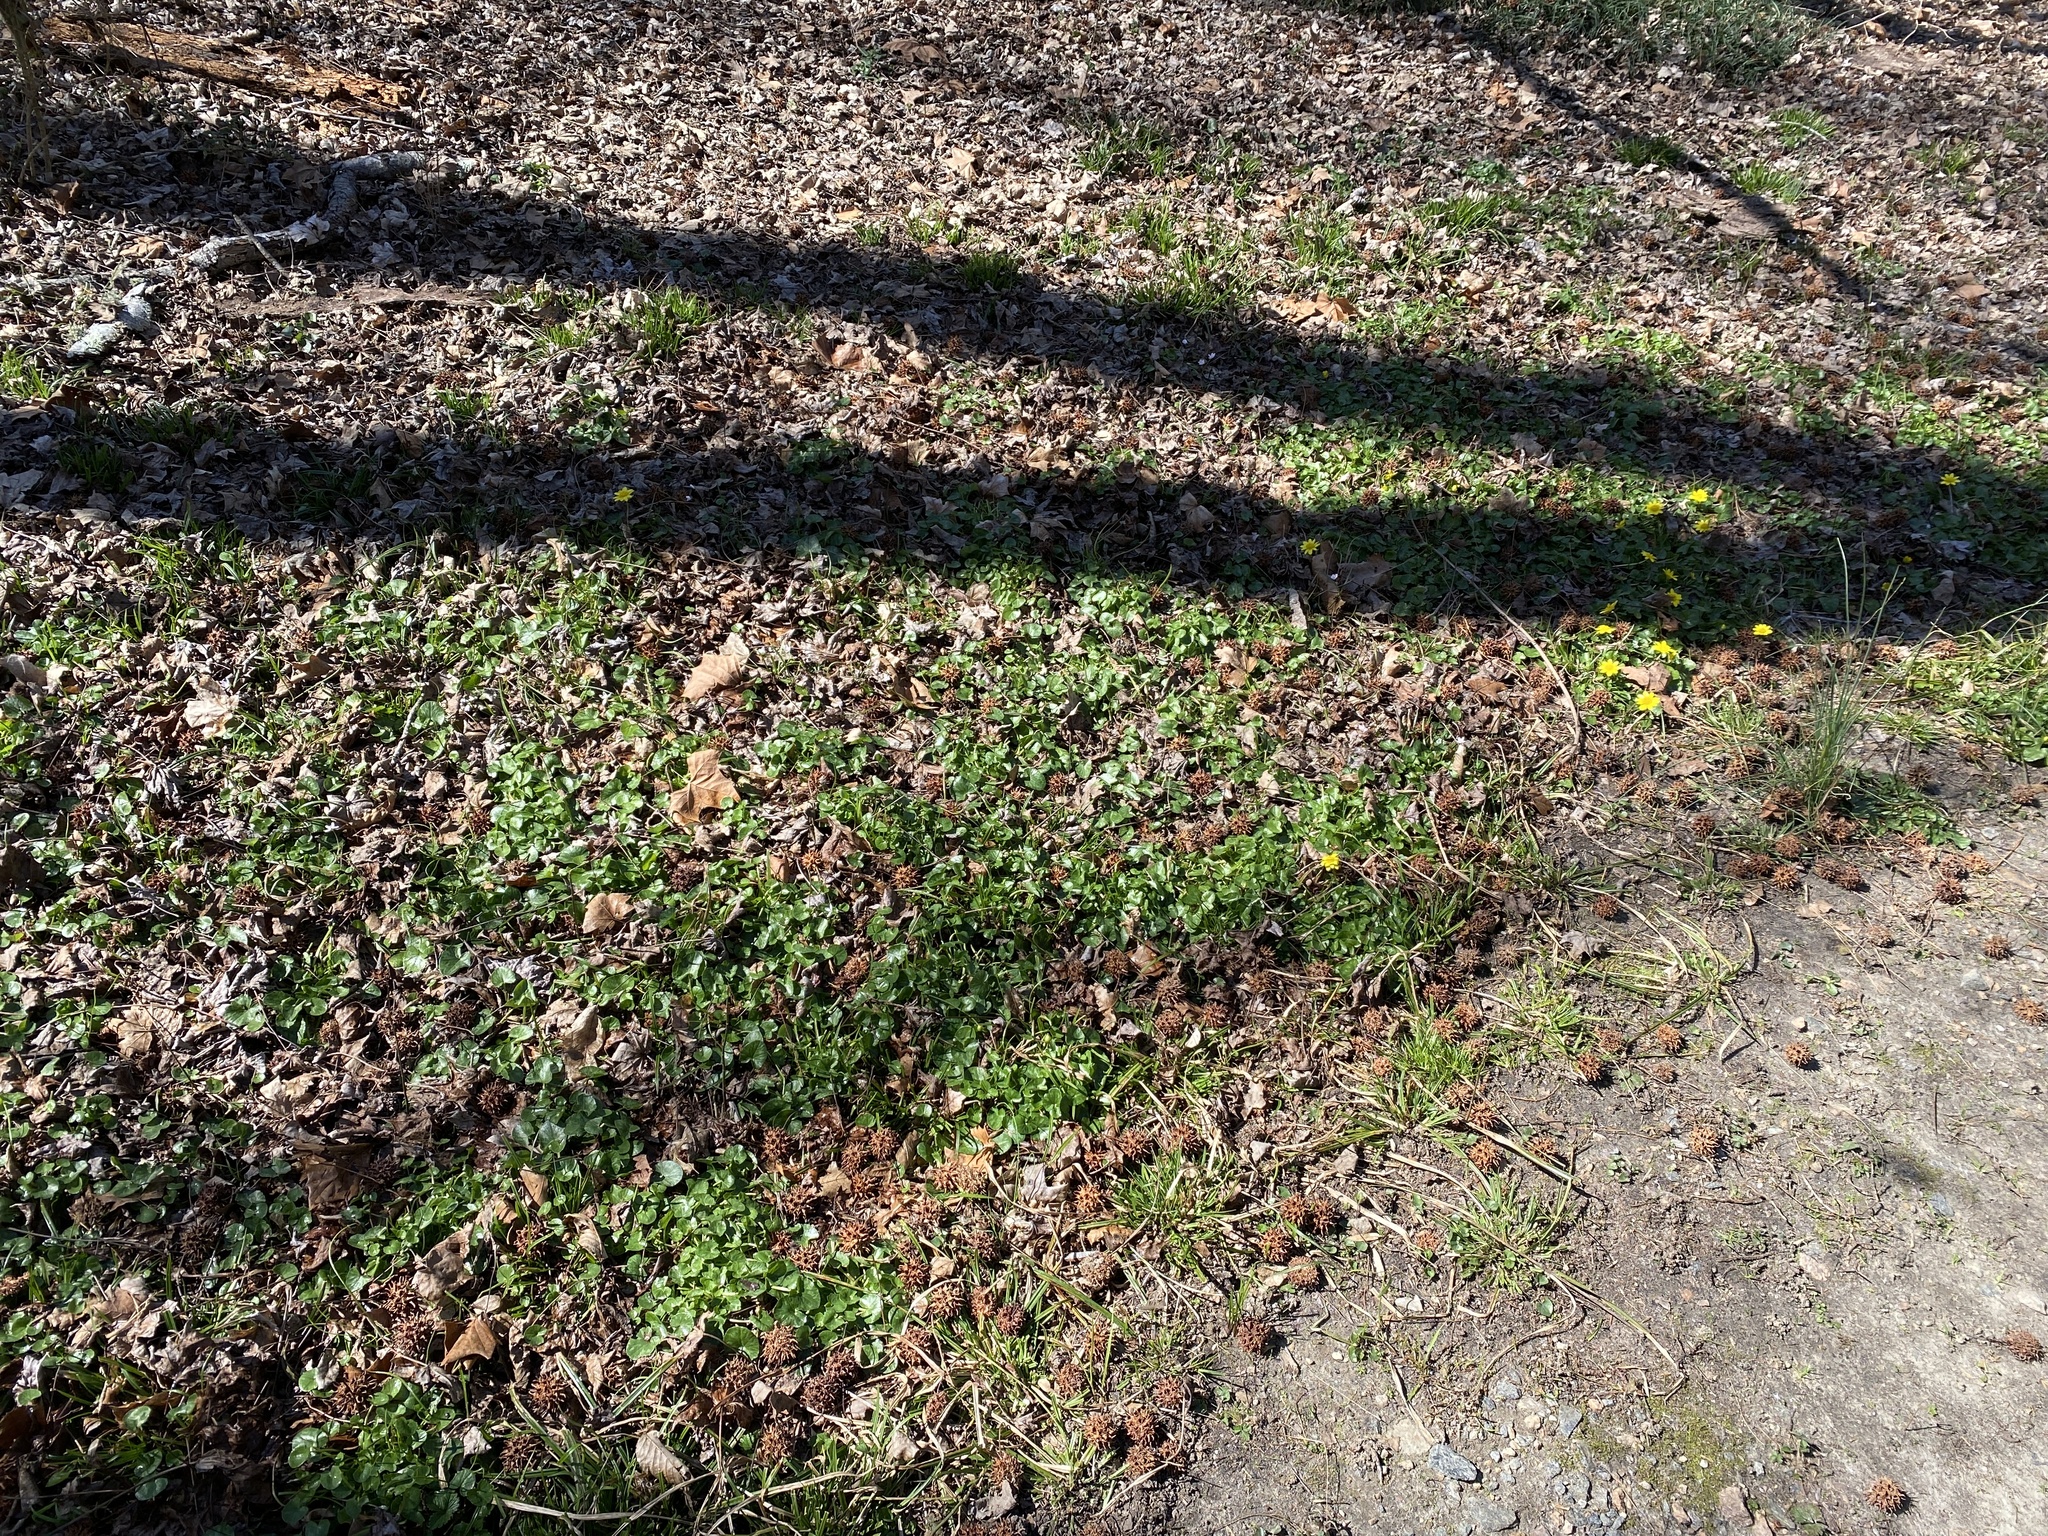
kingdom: Plantae
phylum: Tracheophyta
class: Magnoliopsida
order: Ranunculales
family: Ranunculaceae
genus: Ficaria
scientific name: Ficaria verna
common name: Lesser celandine
